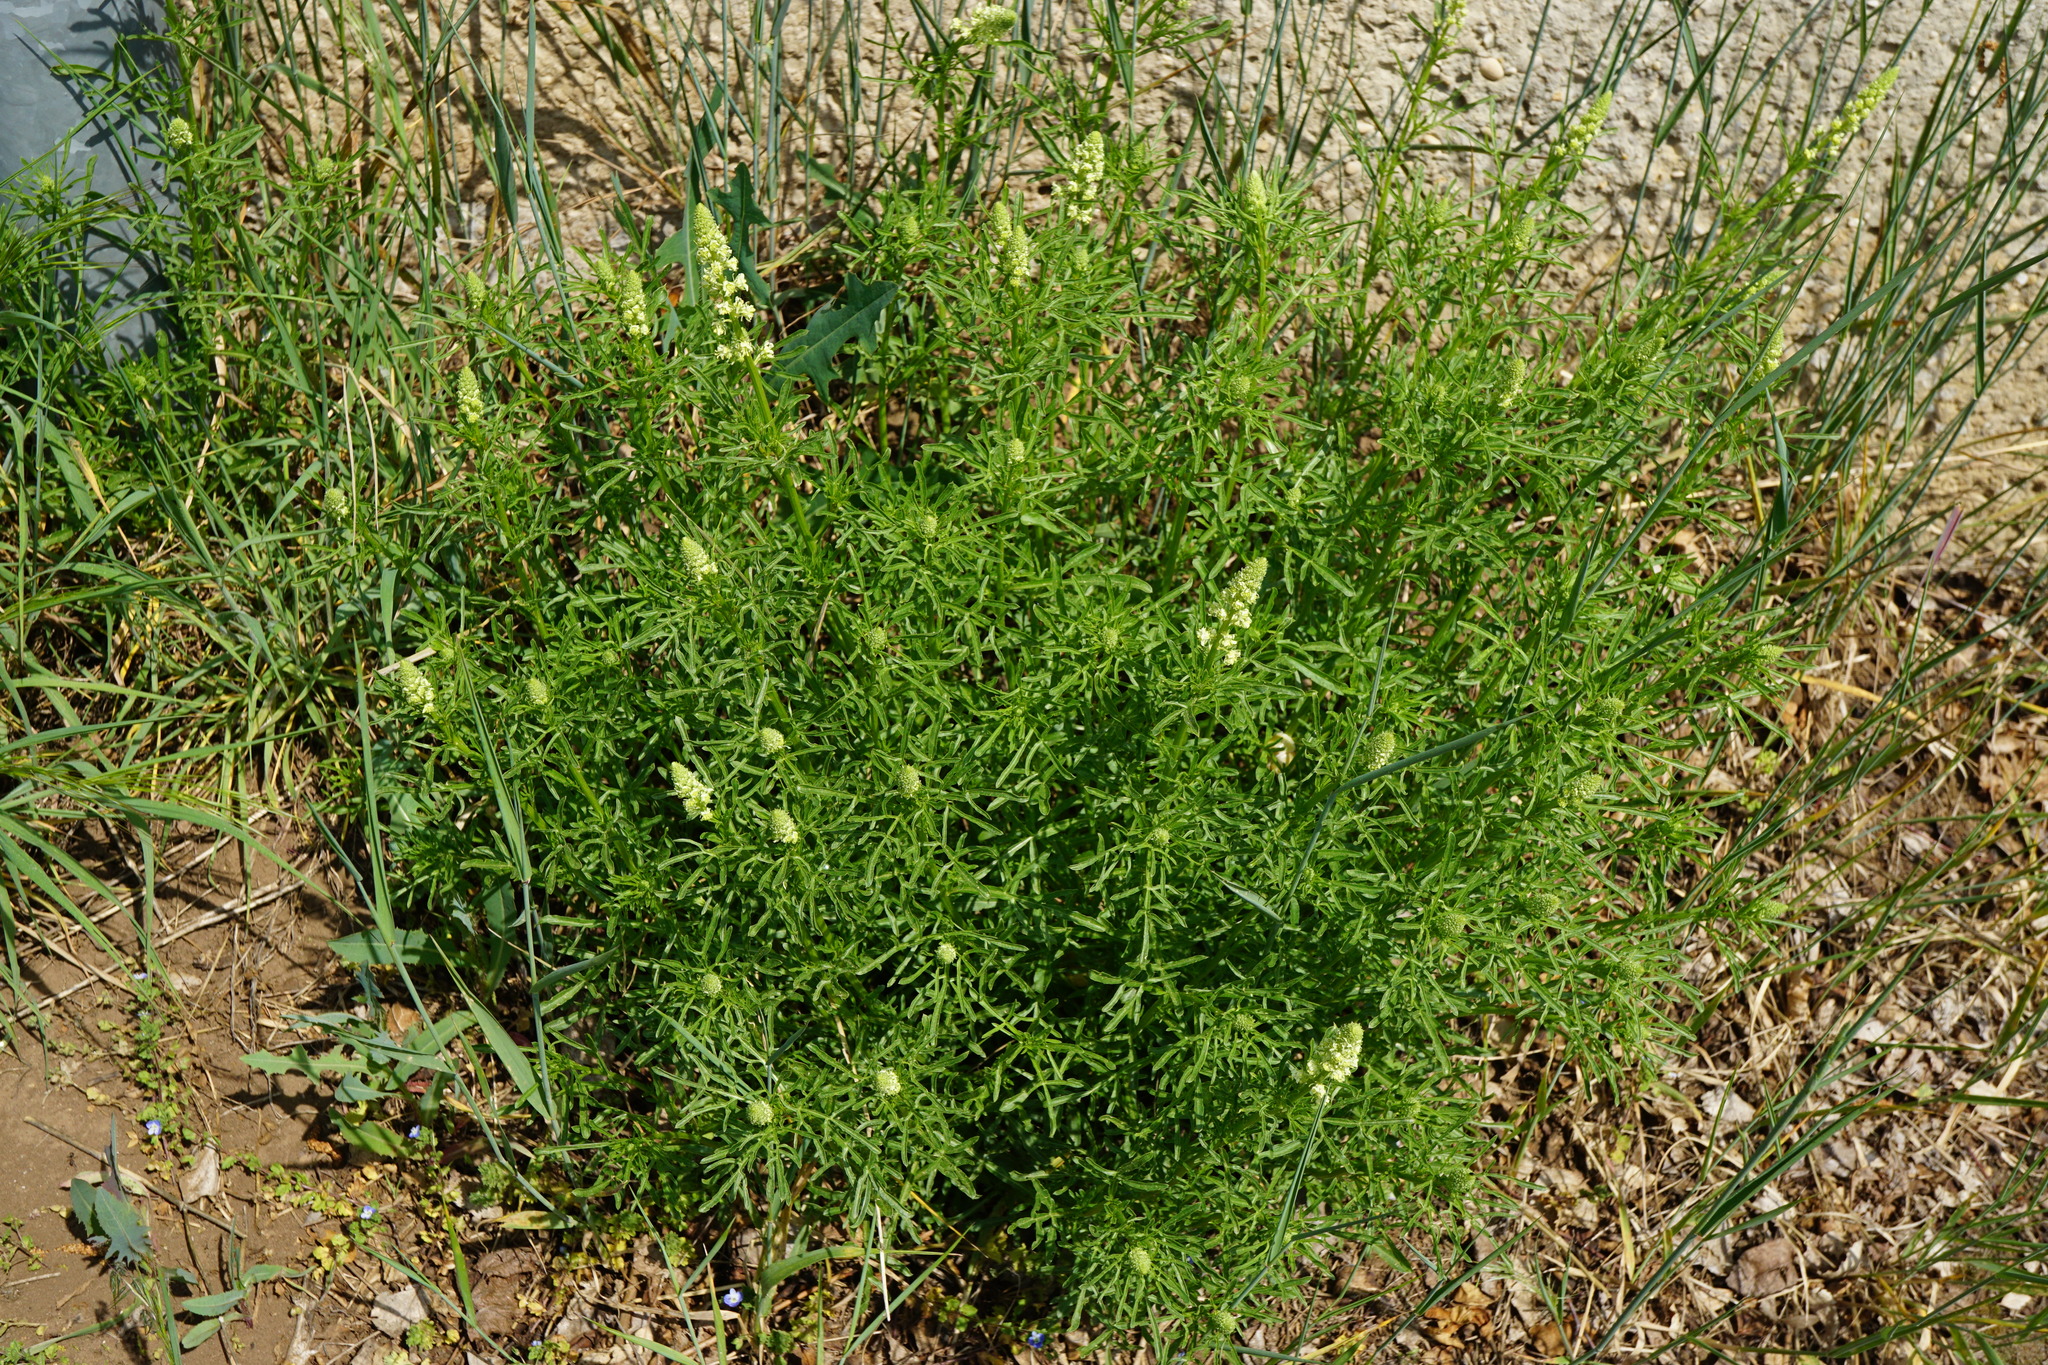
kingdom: Plantae
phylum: Tracheophyta
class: Magnoliopsida
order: Brassicales
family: Resedaceae
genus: Reseda
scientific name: Reseda lutea
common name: Wild mignonette
